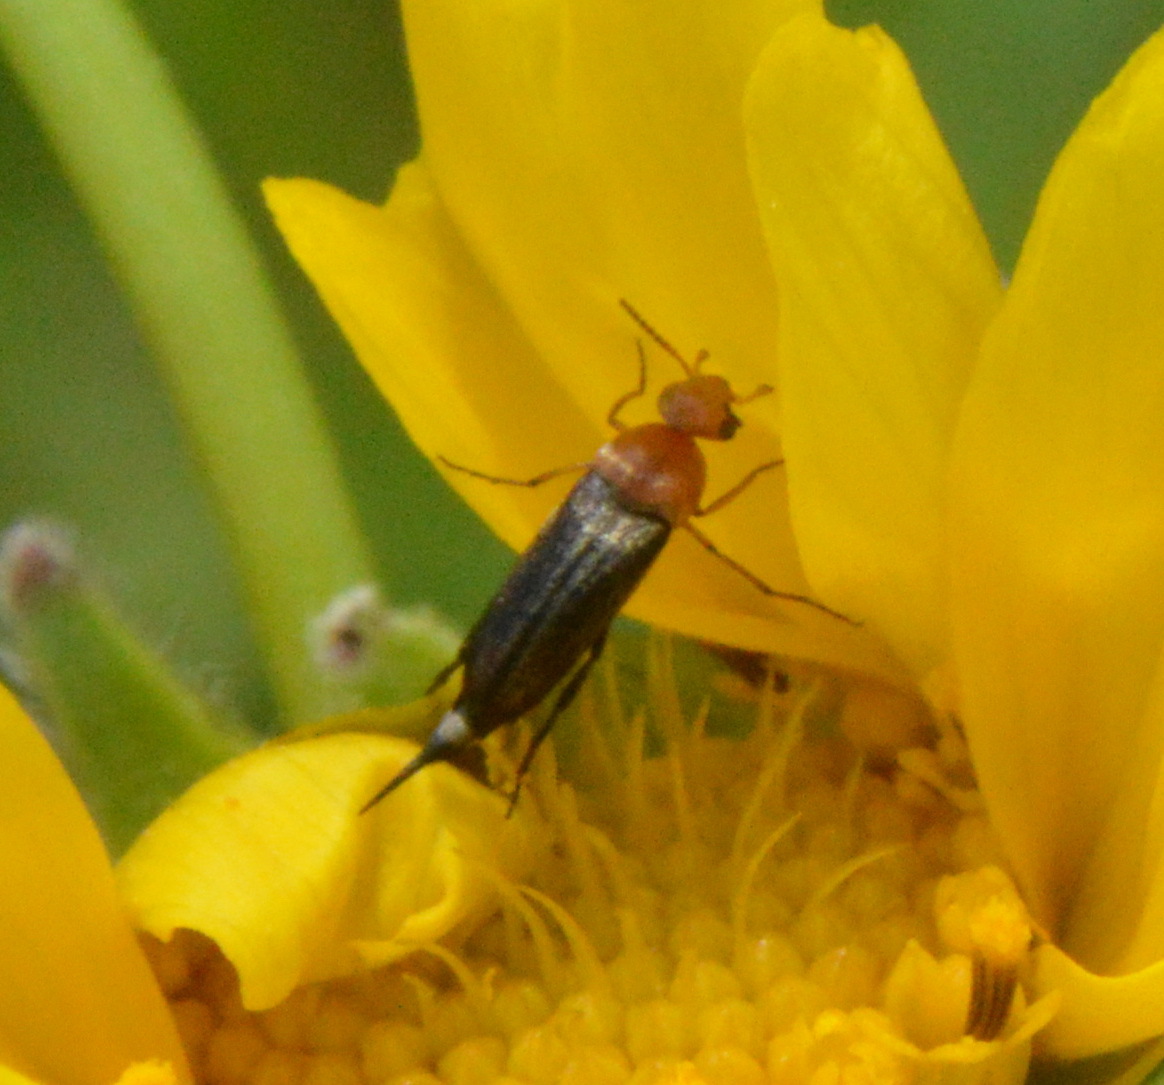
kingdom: Animalia
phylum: Arthropoda
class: Insecta
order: Coleoptera
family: Mordellidae
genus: Mordellistena
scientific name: Mordellistena comata
